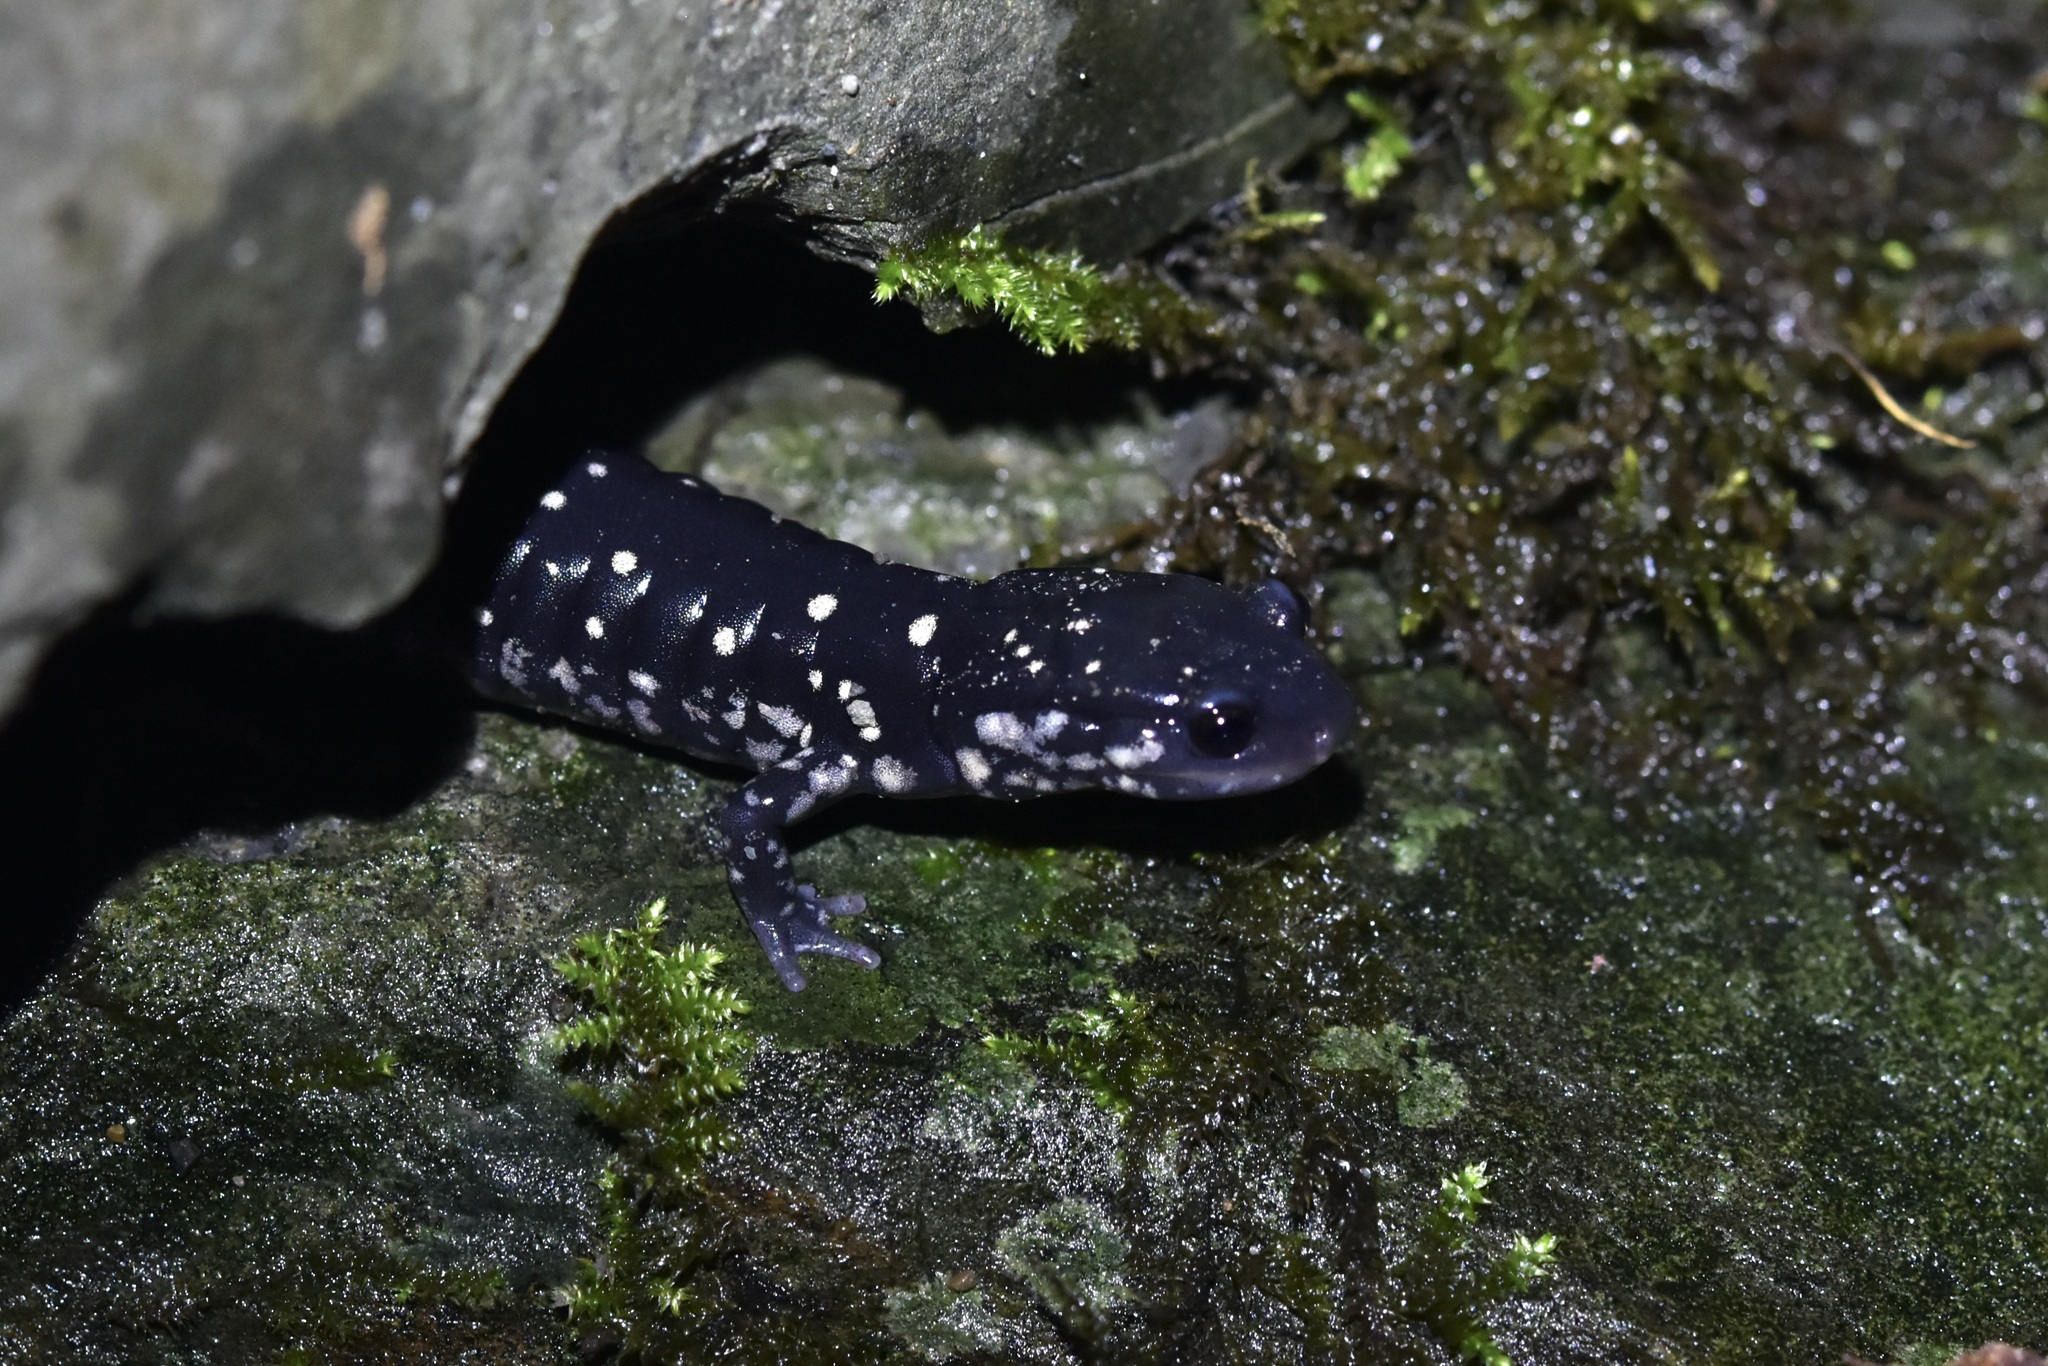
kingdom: Animalia
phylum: Chordata
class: Amphibia
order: Caudata
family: Plethodontidae
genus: Plethodon
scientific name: Plethodon glutinosus
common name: Northern slimy salamander
